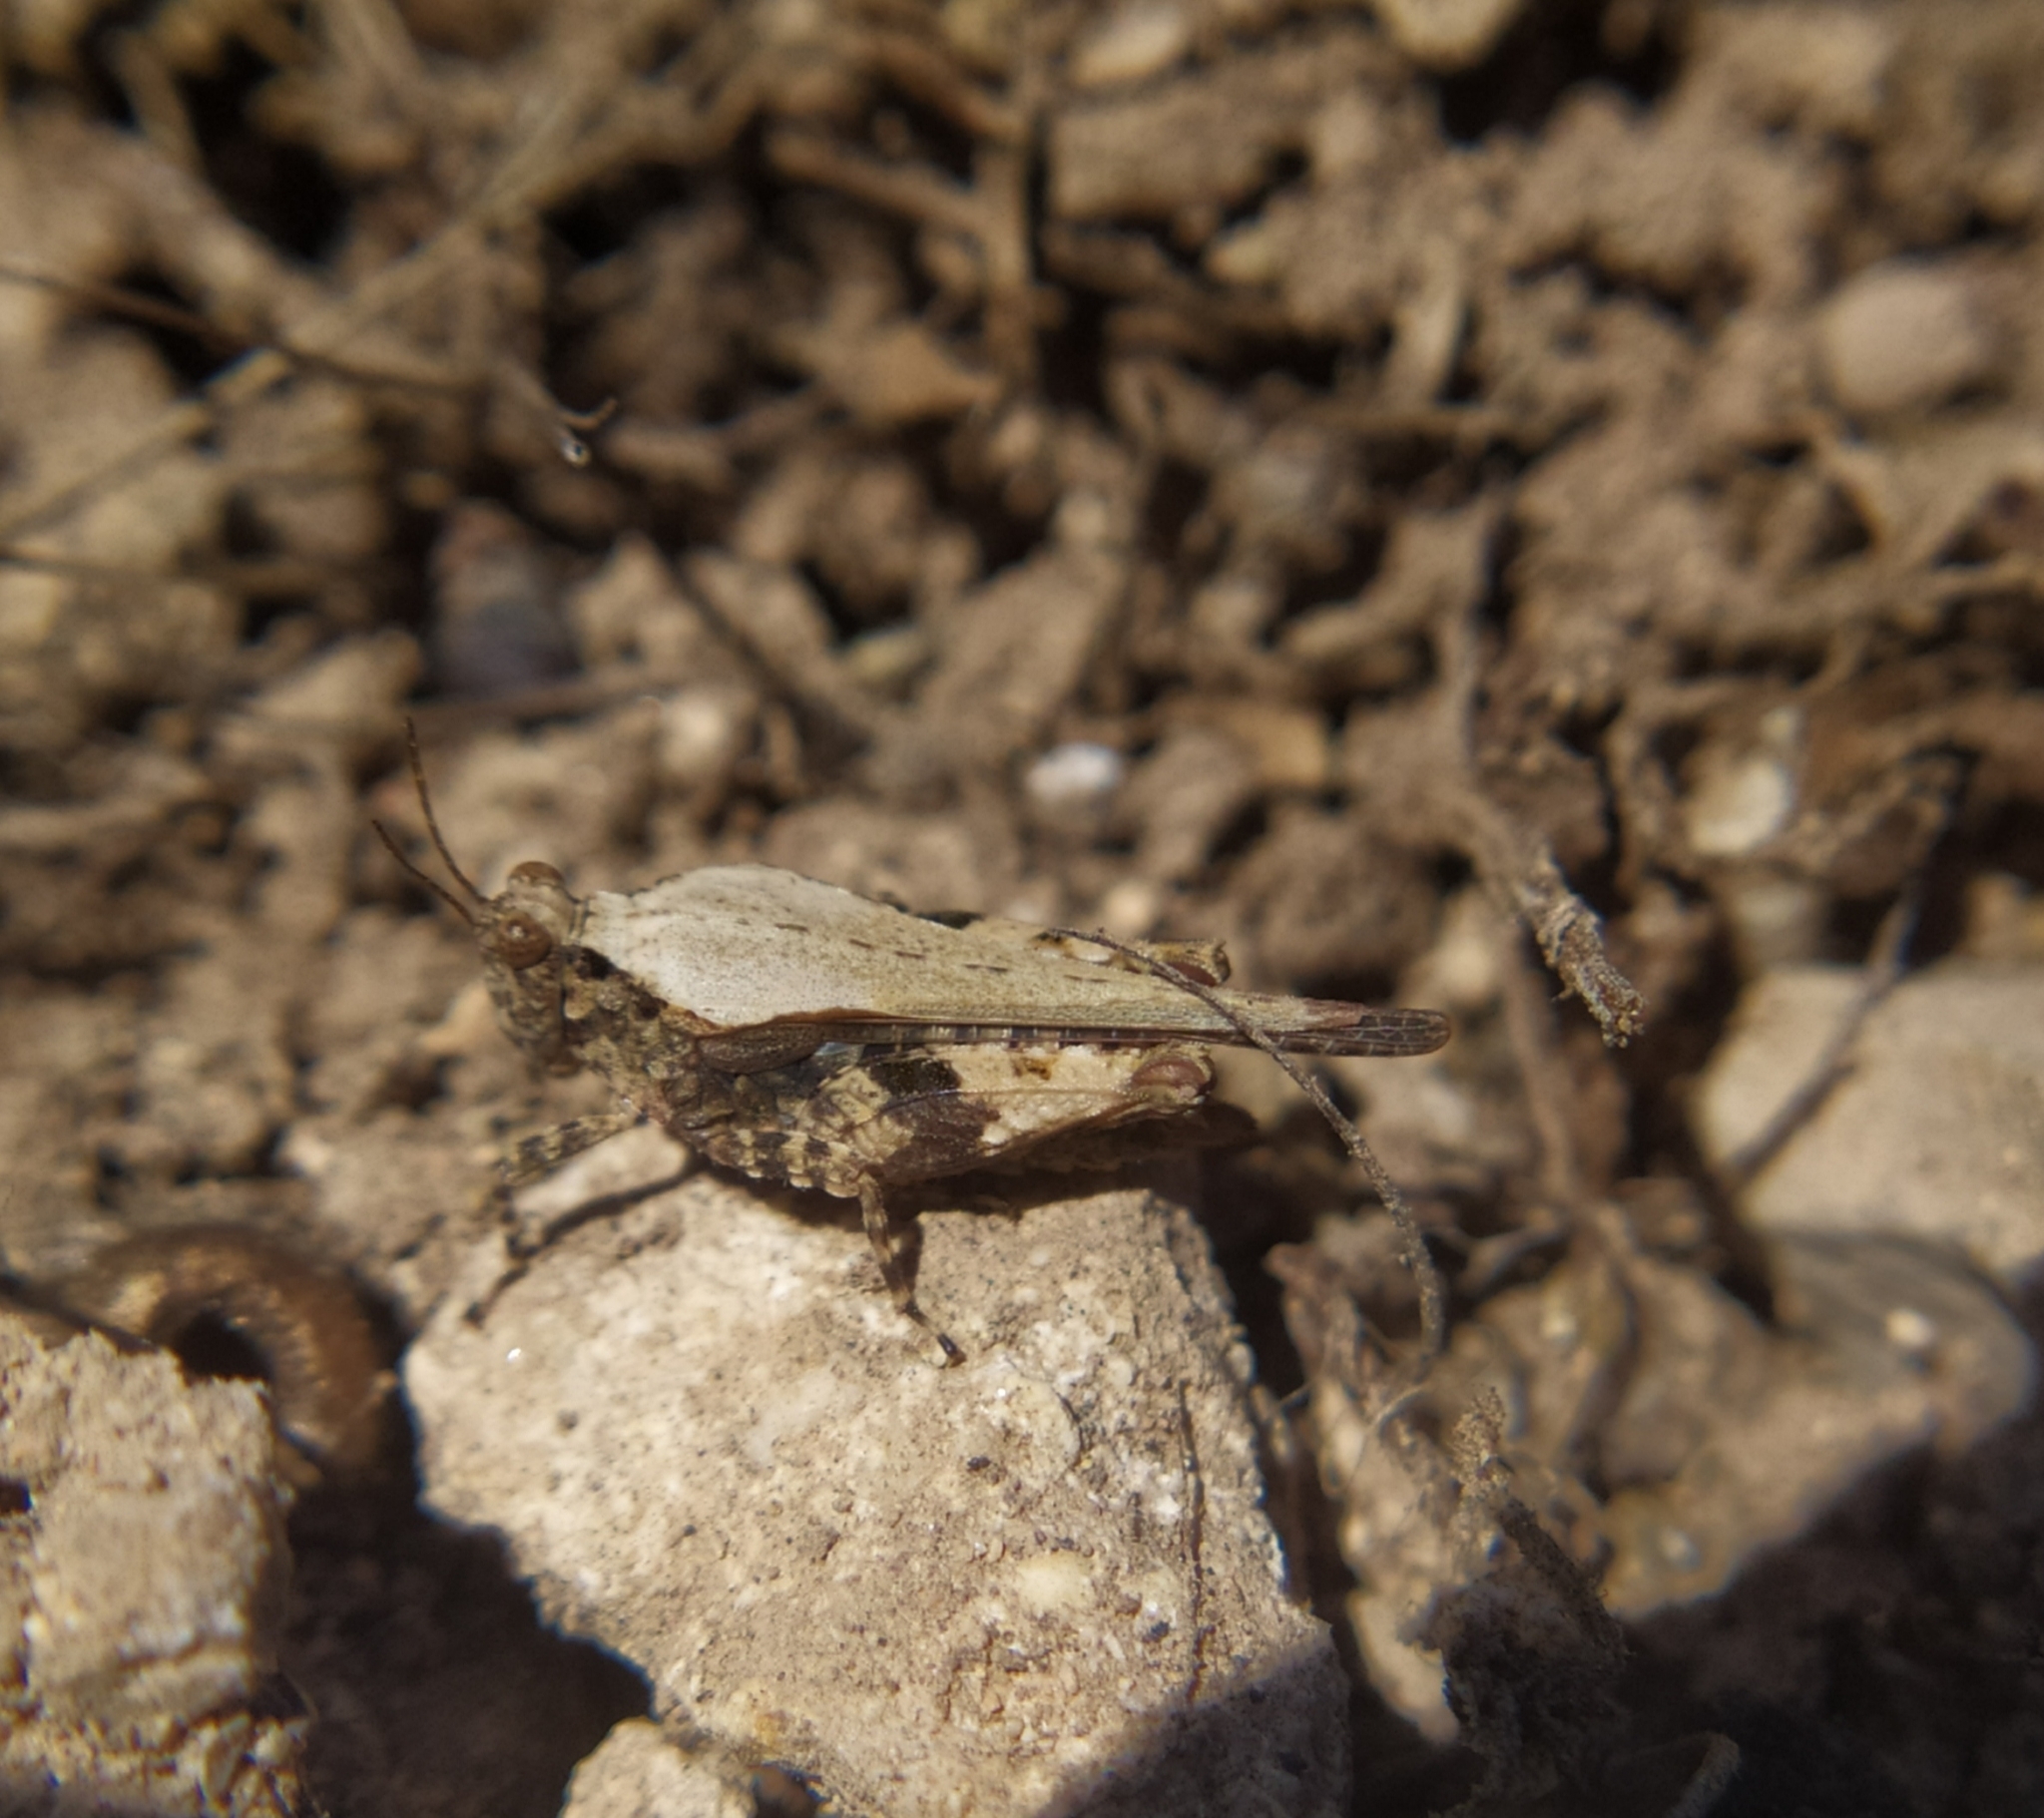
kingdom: Animalia
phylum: Arthropoda
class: Insecta
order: Orthoptera
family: Tetrigidae
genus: Paratettix
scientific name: Paratettix meridionalis
